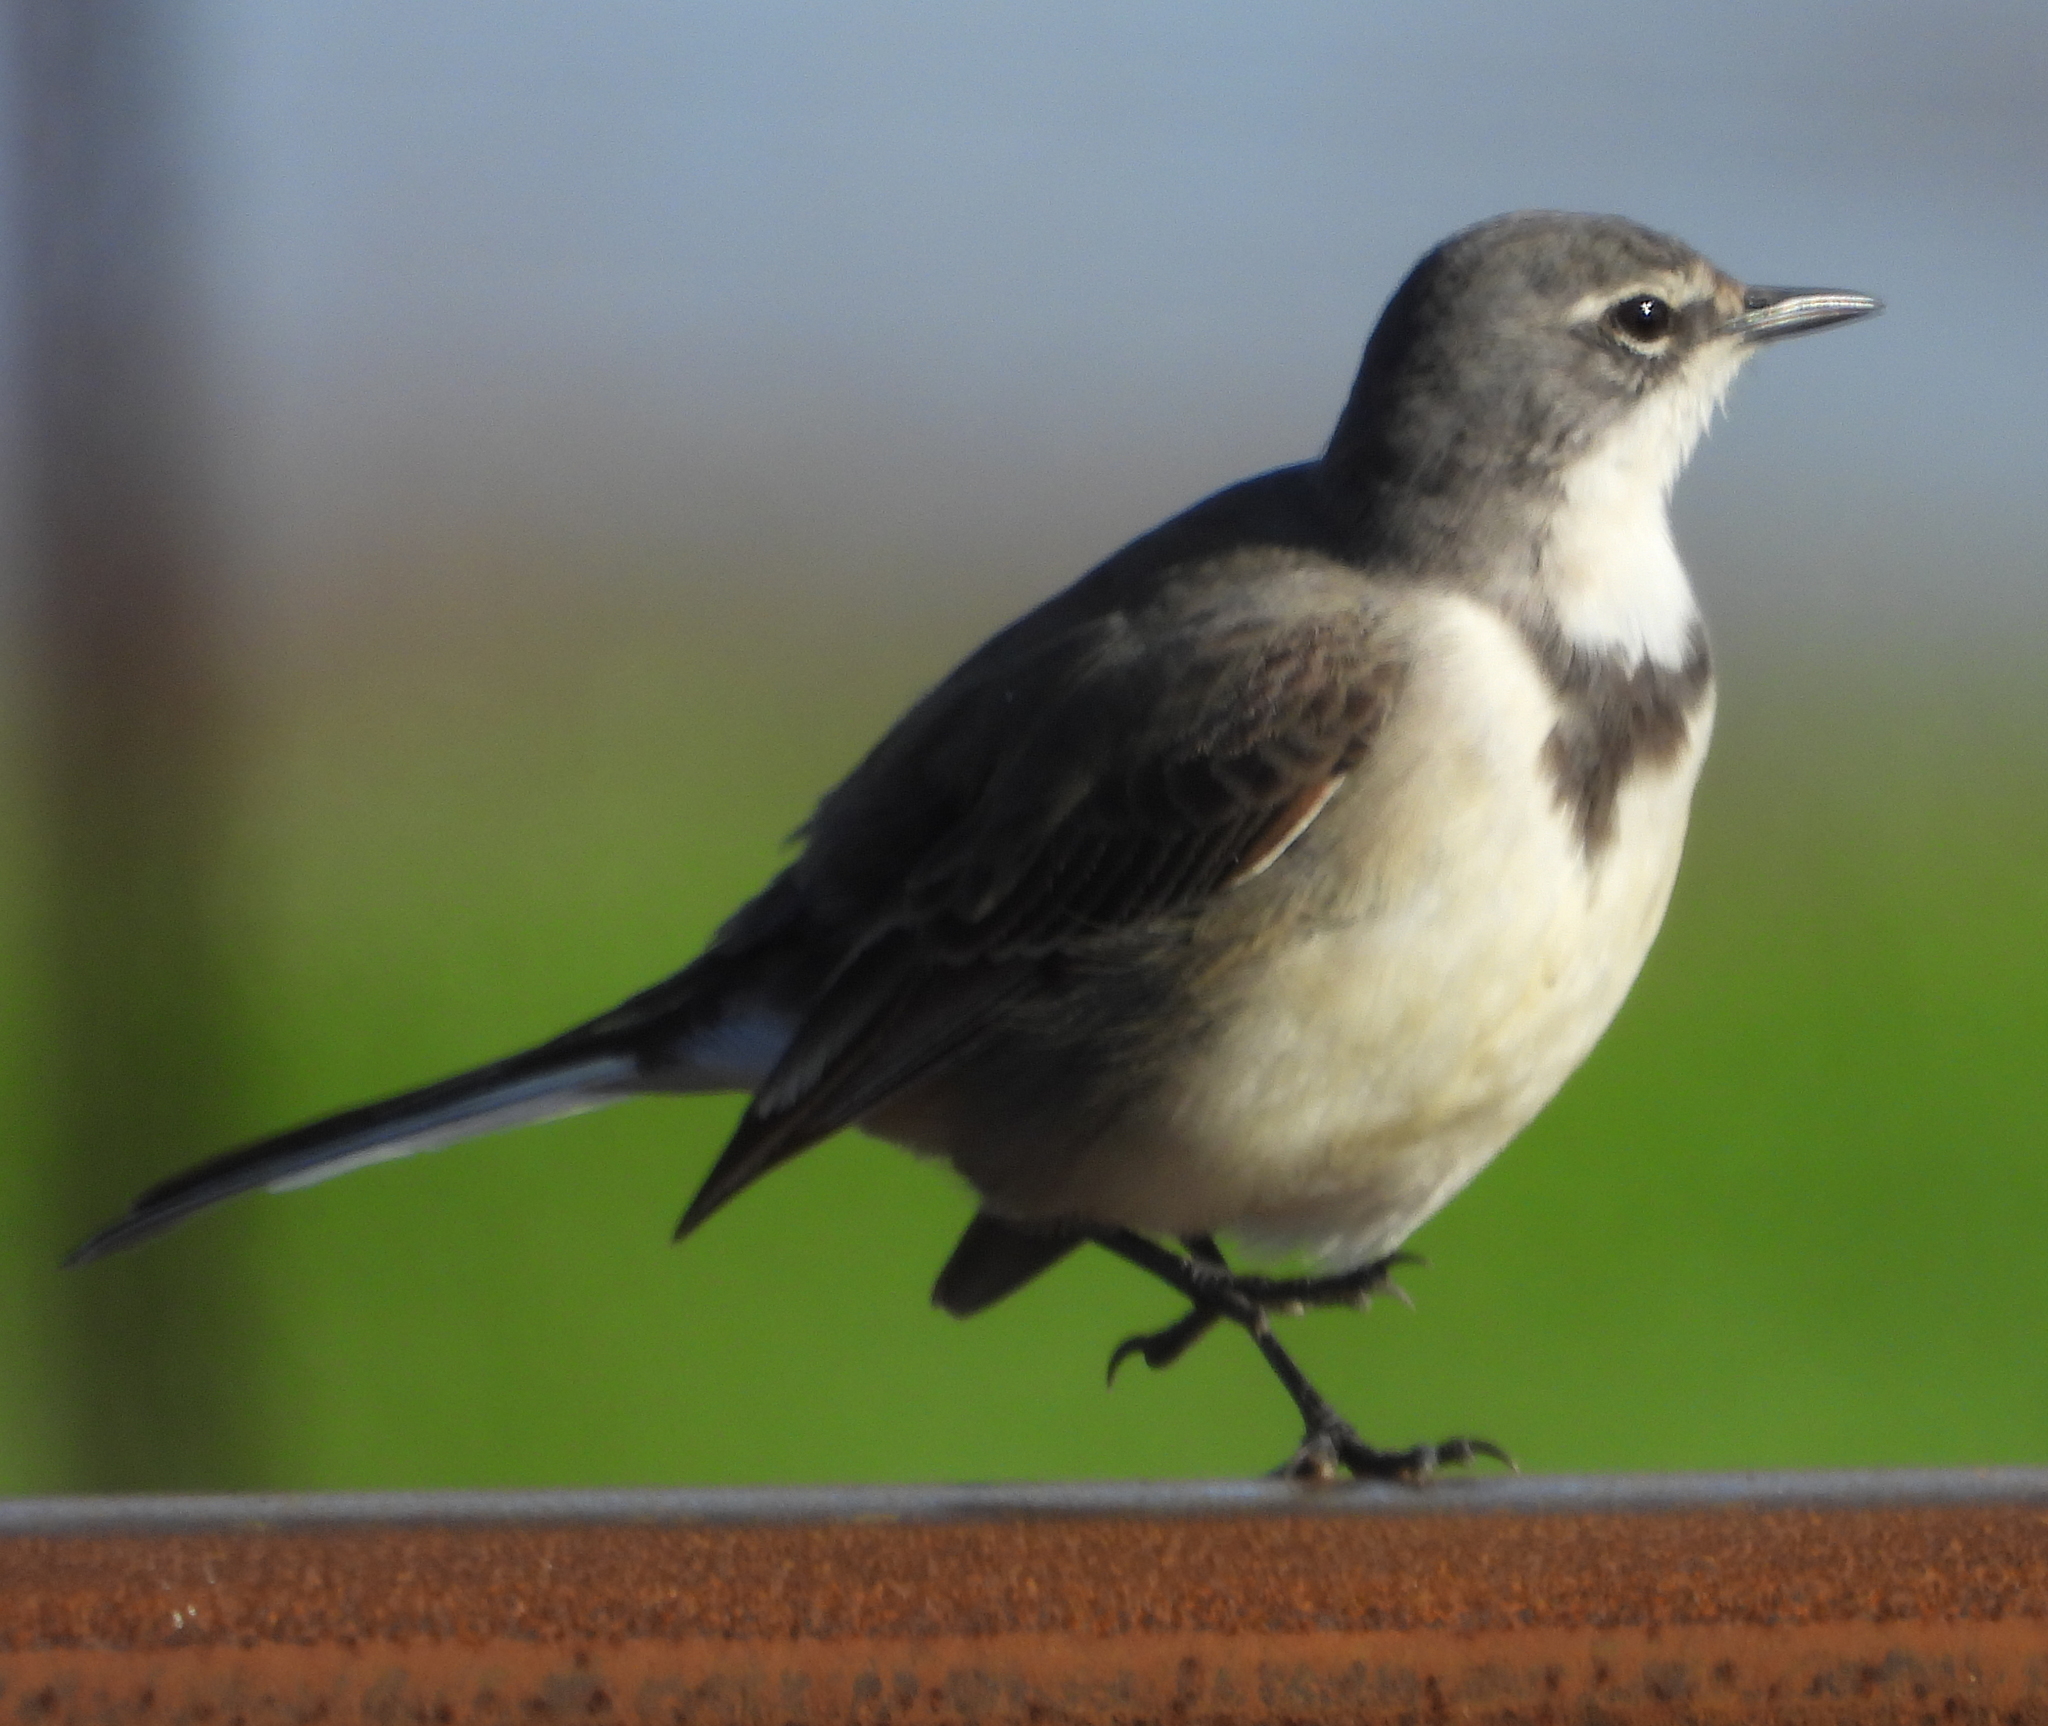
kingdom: Animalia
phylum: Chordata
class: Aves
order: Passeriformes
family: Motacillidae
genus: Motacilla
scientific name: Motacilla capensis
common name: Cape wagtail
